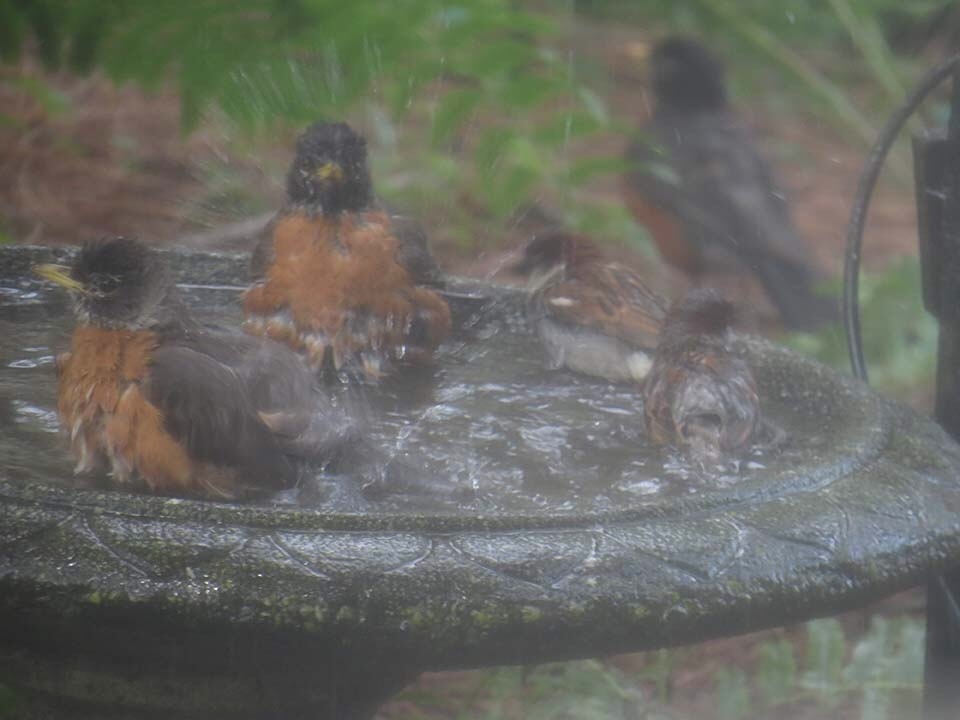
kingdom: Animalia
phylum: Chordata
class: Aves
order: Passeriformes
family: Turdidae
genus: Turdus
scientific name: Turdus migratorius
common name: American robin
